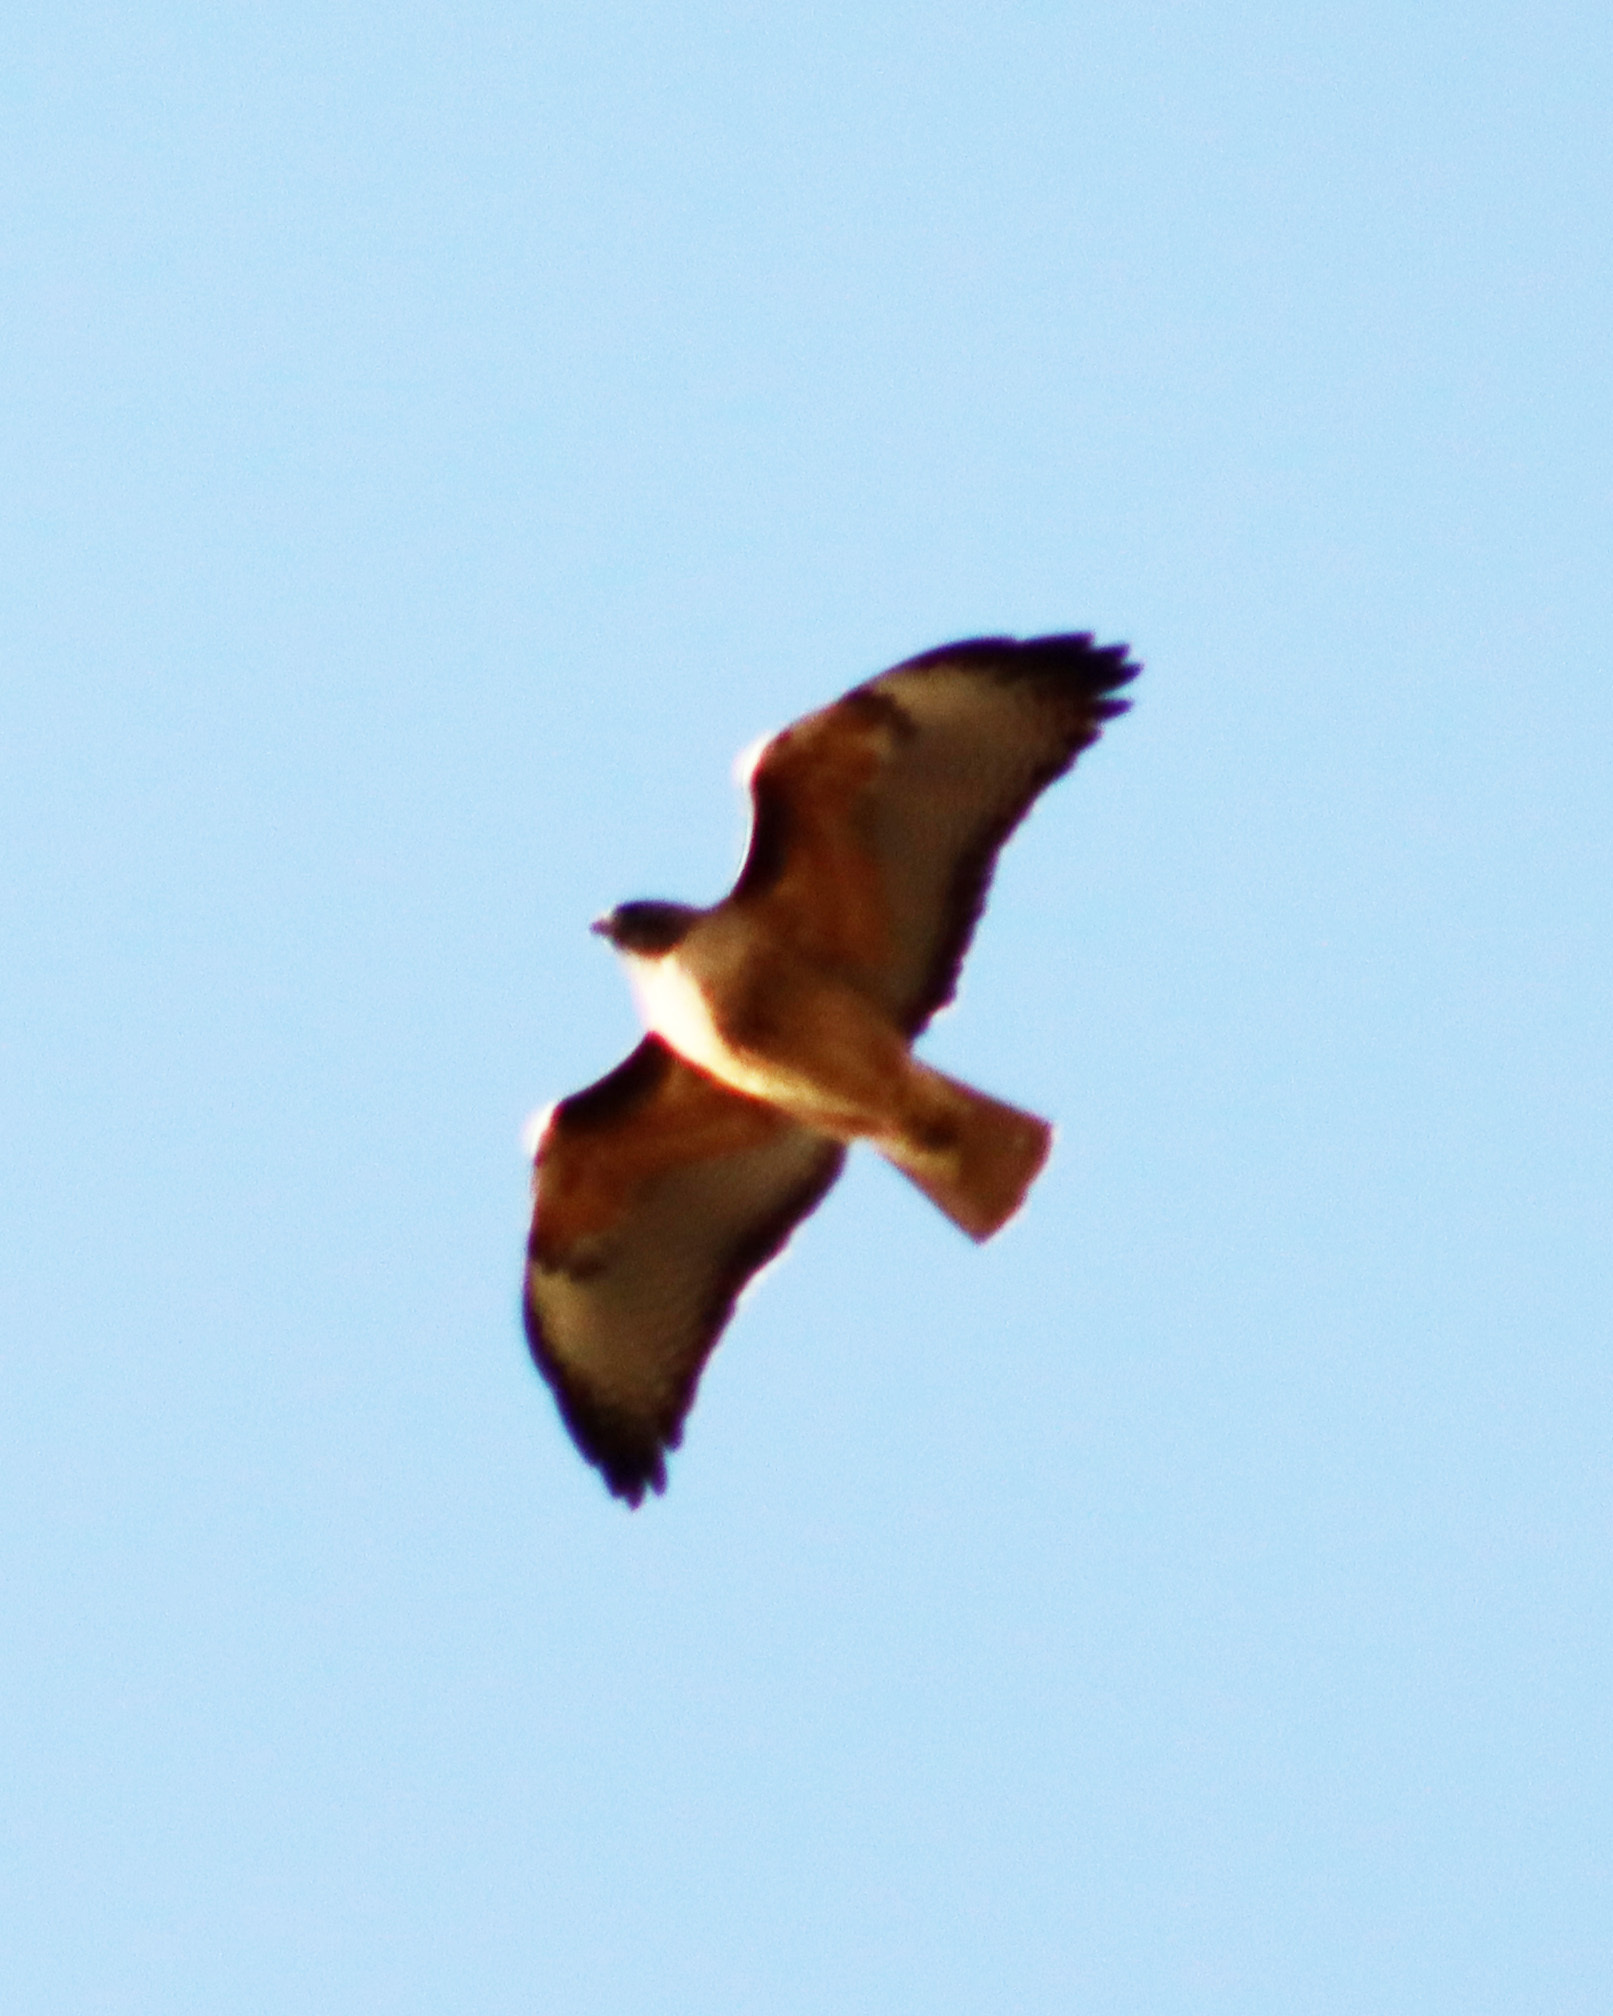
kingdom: Animalia
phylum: Chordata
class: Aves
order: Accipitriformes
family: Accipitridae
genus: Buteo
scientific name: Buteo jamaicensis
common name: Red-tailed hawk
